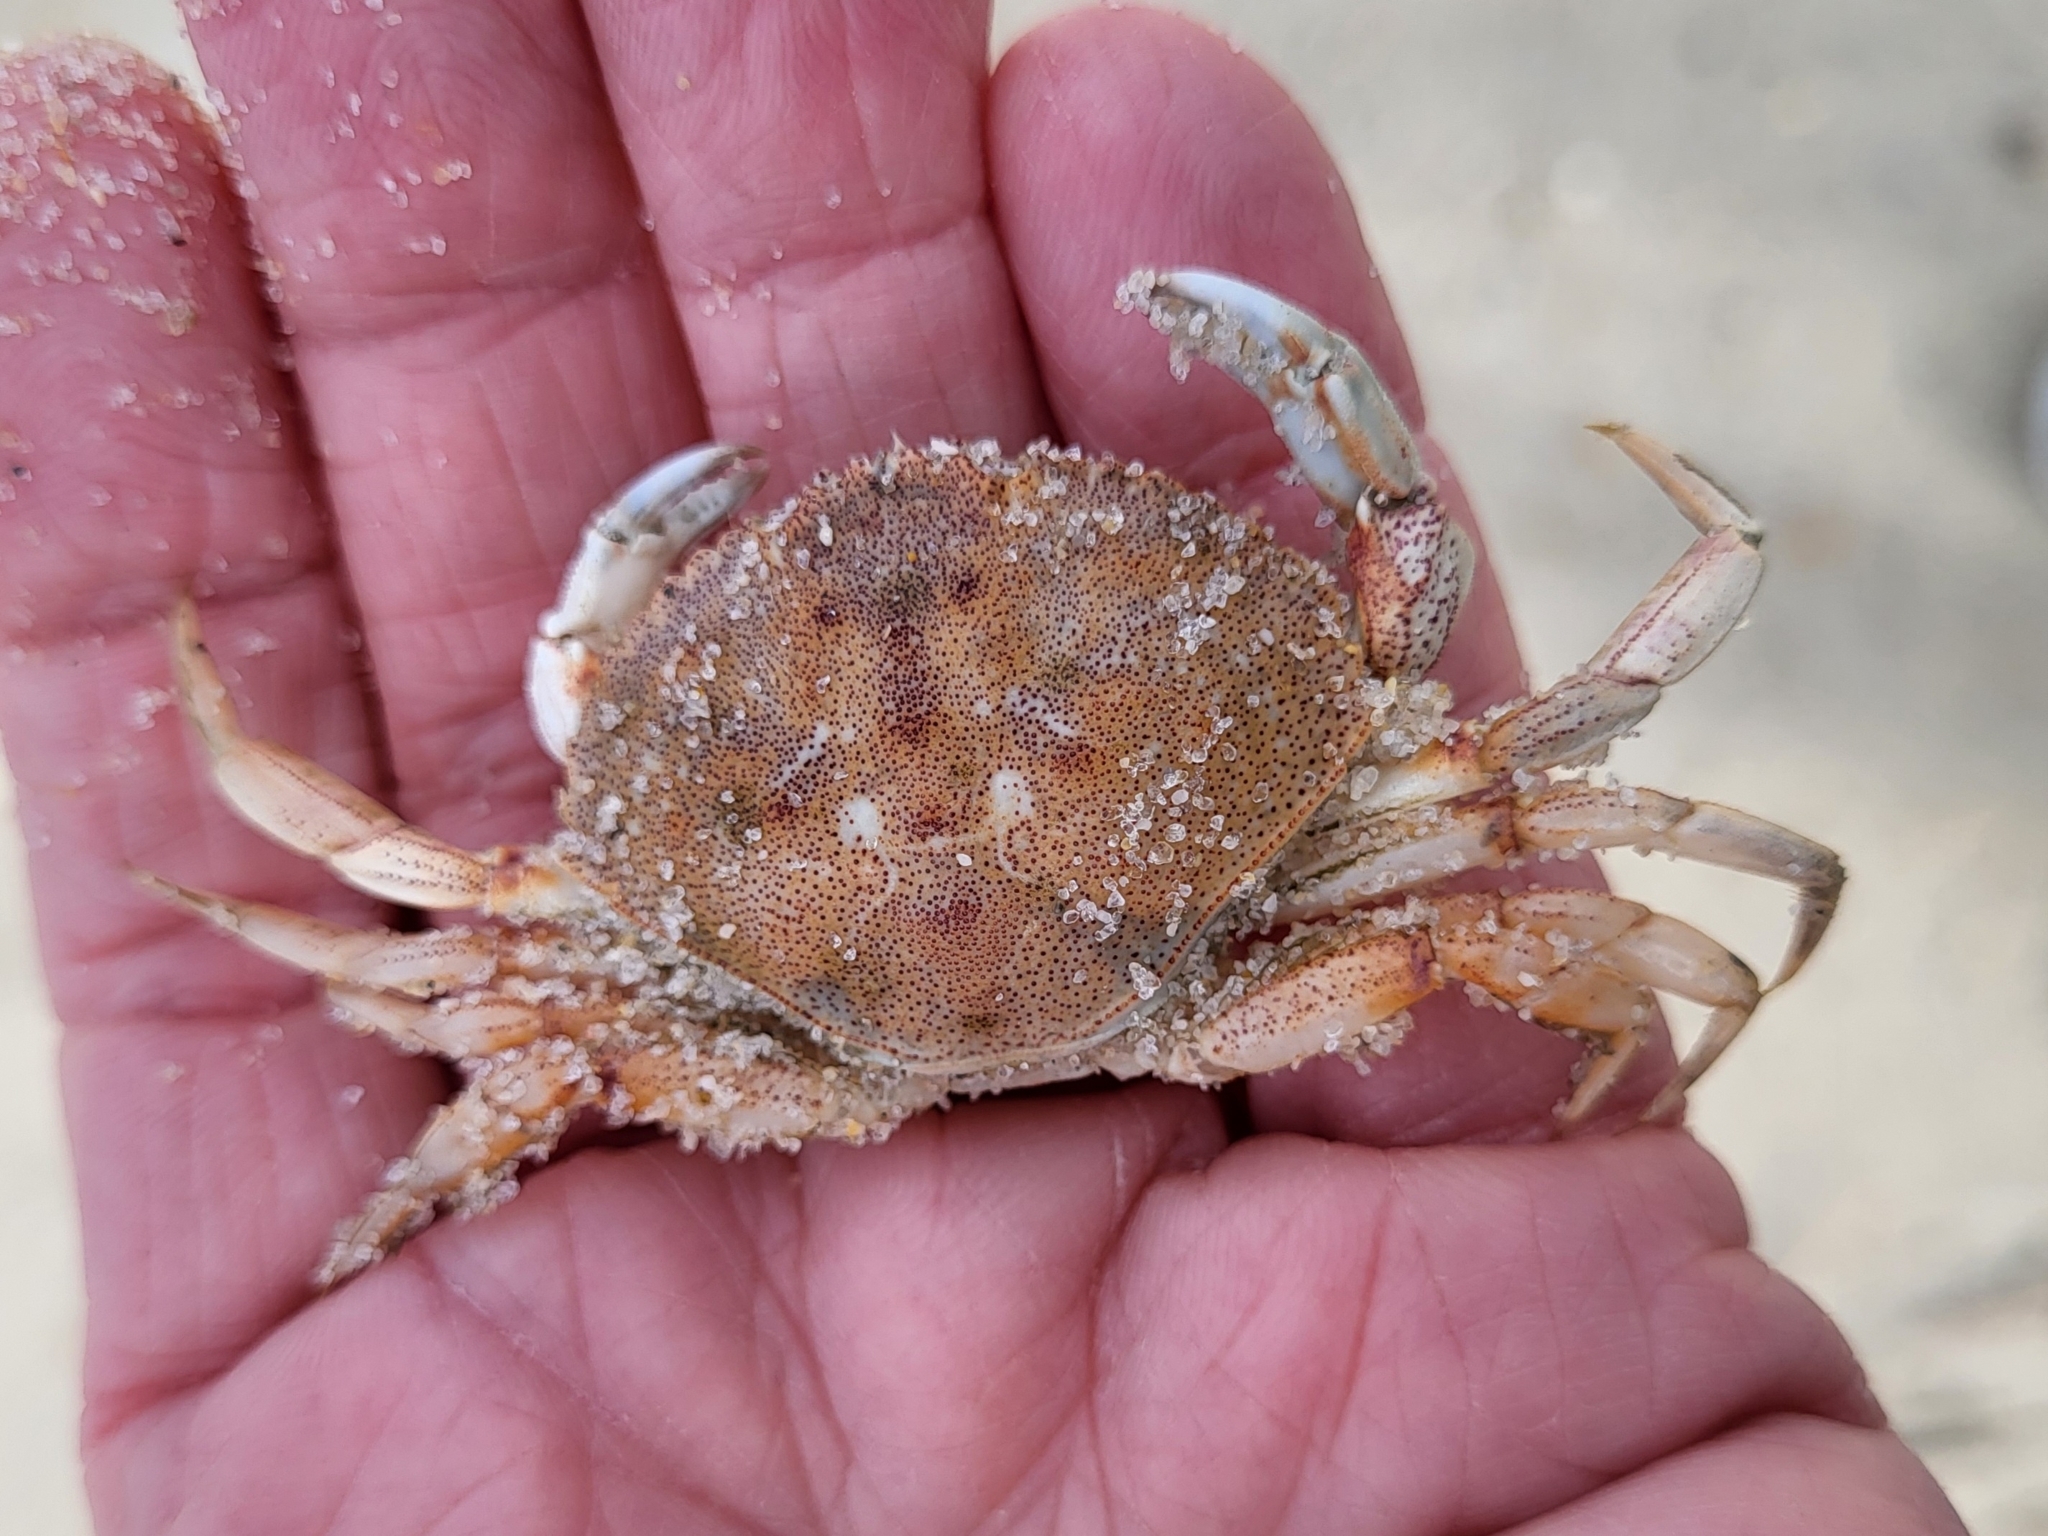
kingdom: Animalia
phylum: Arthropoda
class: Malacostraca
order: Decapoda
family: Cancridae
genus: Cancer
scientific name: Cancer irroratus
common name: Atlantic rock crab
